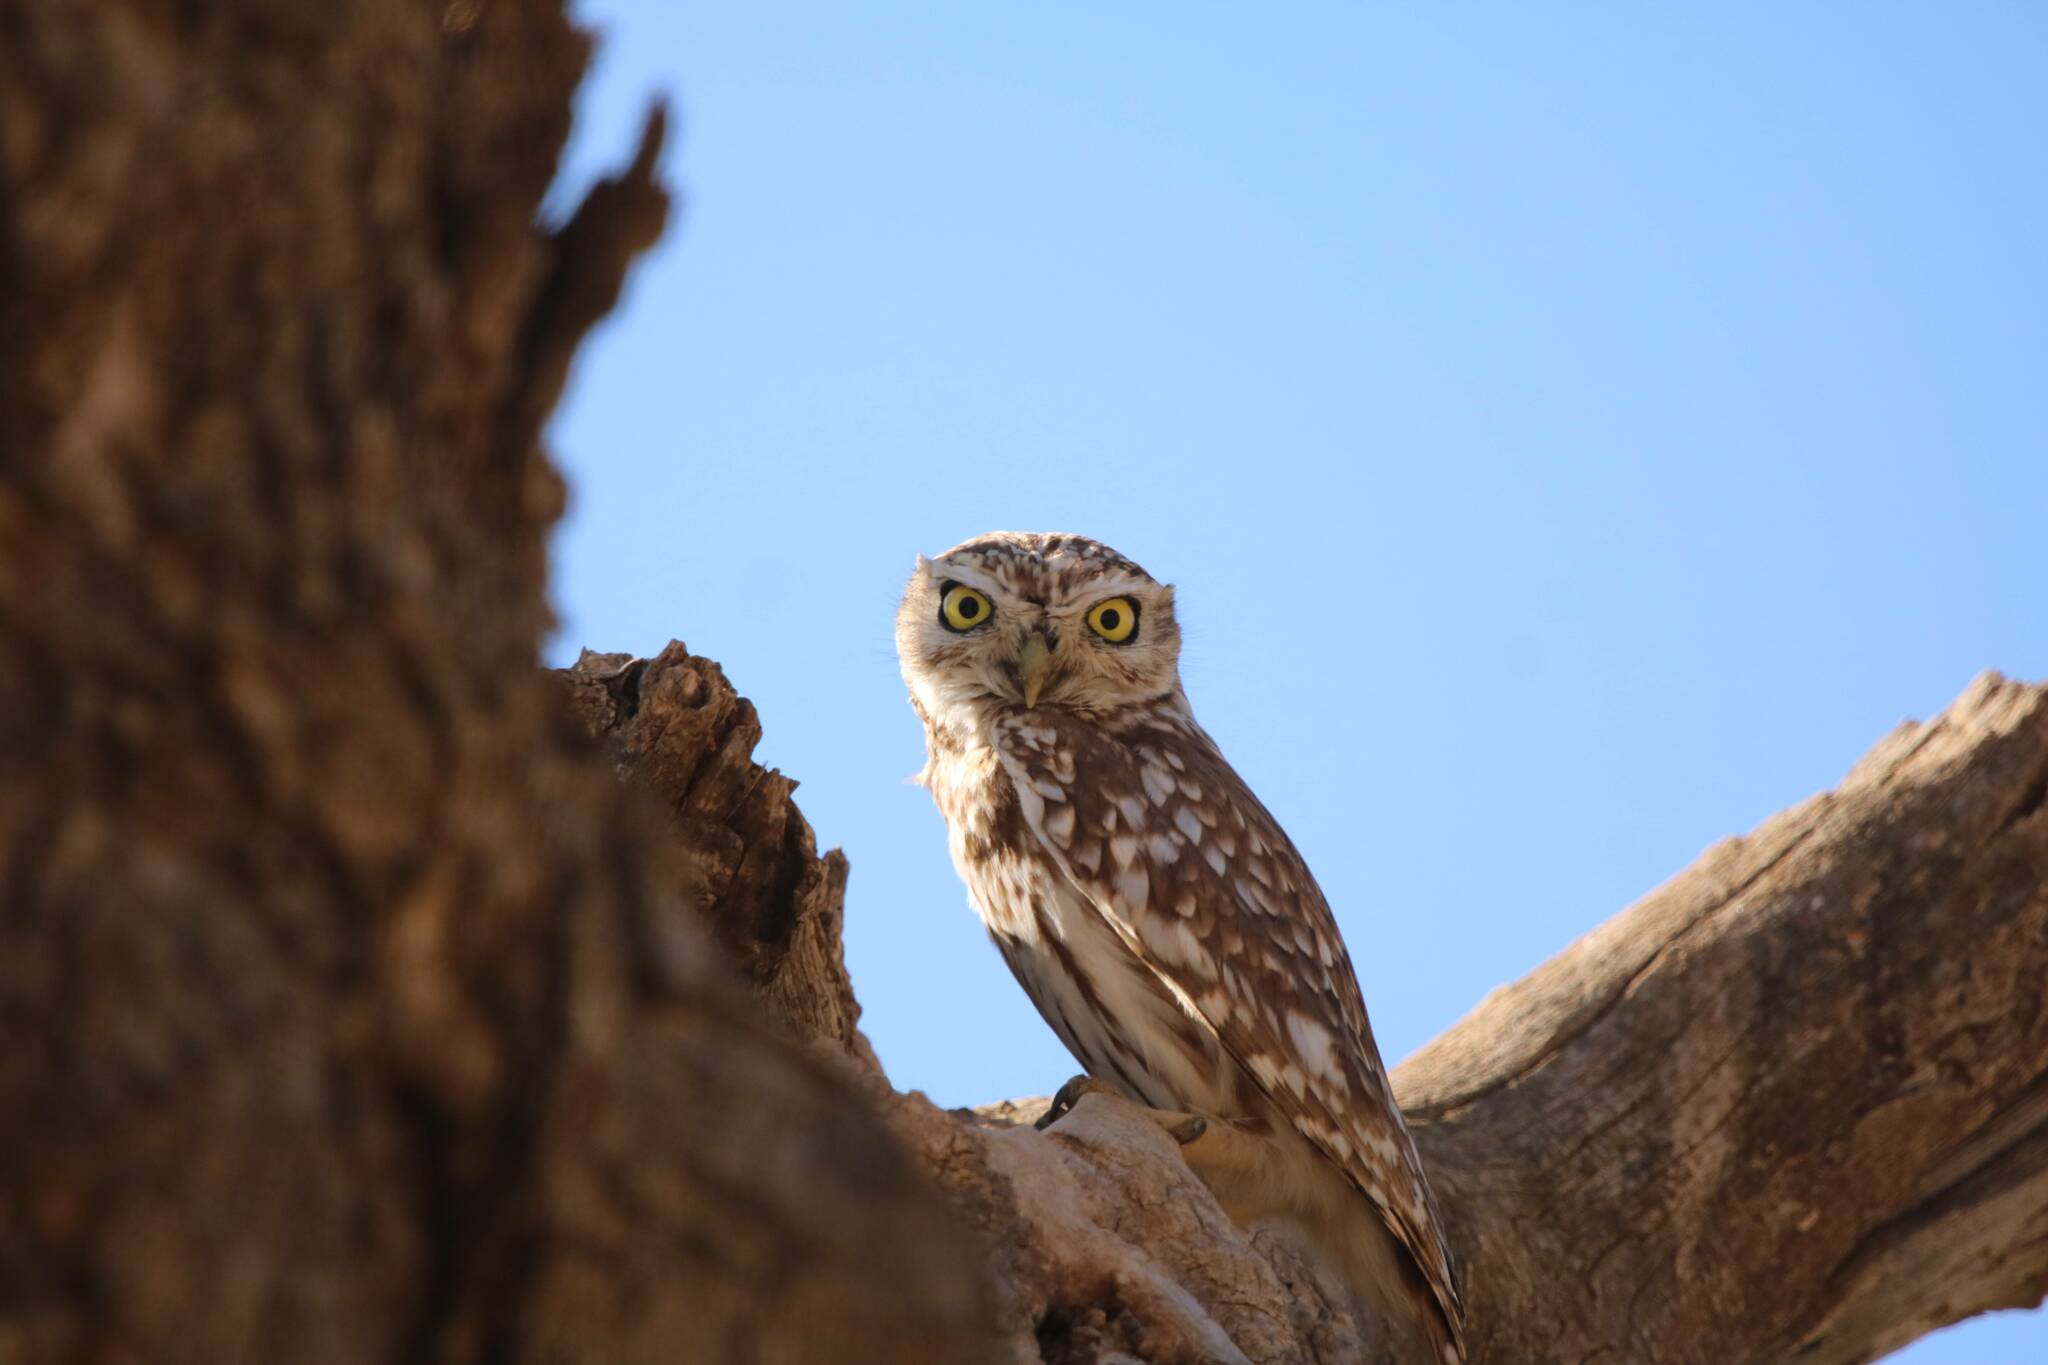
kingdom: Animalia
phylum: Chordata
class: Aves
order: Strigiformes
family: Strigidae
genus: Athene
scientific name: Athene noctua
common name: Little owl
